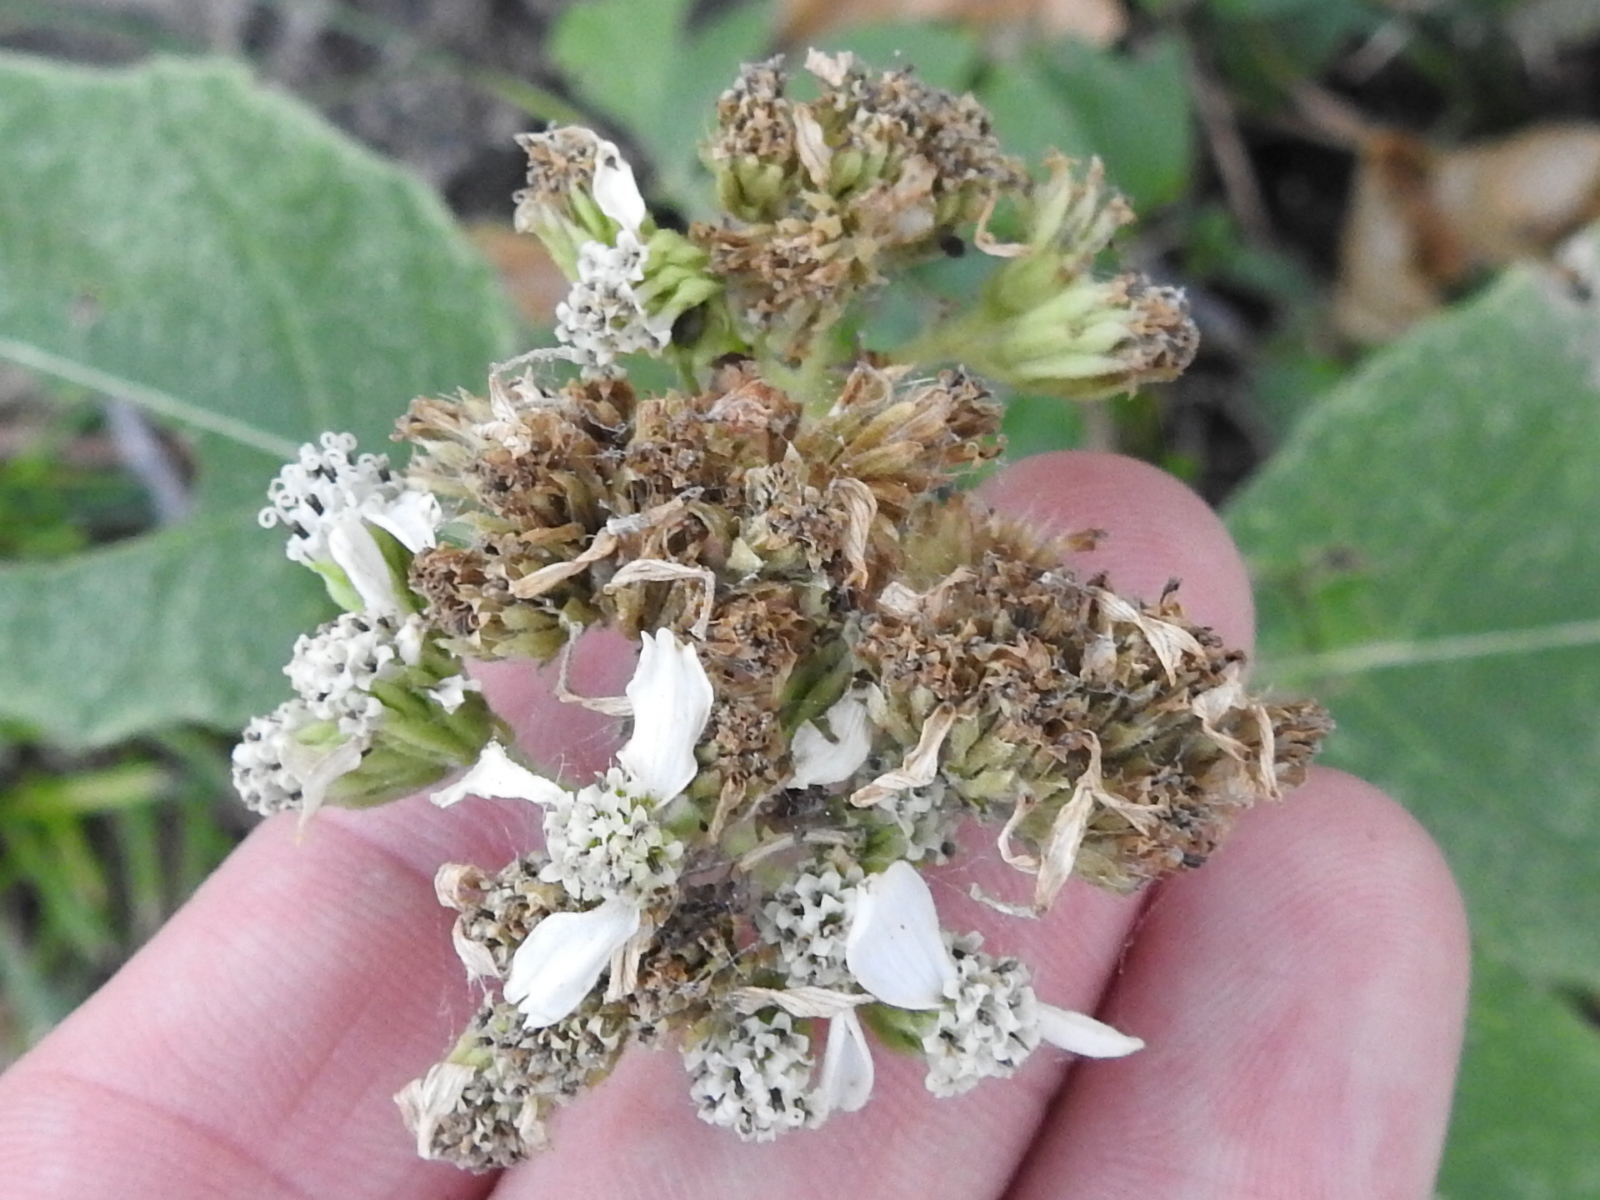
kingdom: Plantae
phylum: Tracheophyta
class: Magnoliopsida
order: Asterales
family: Asteraceae
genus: Verbesina
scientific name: Verbesina virginica
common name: Frostweed
